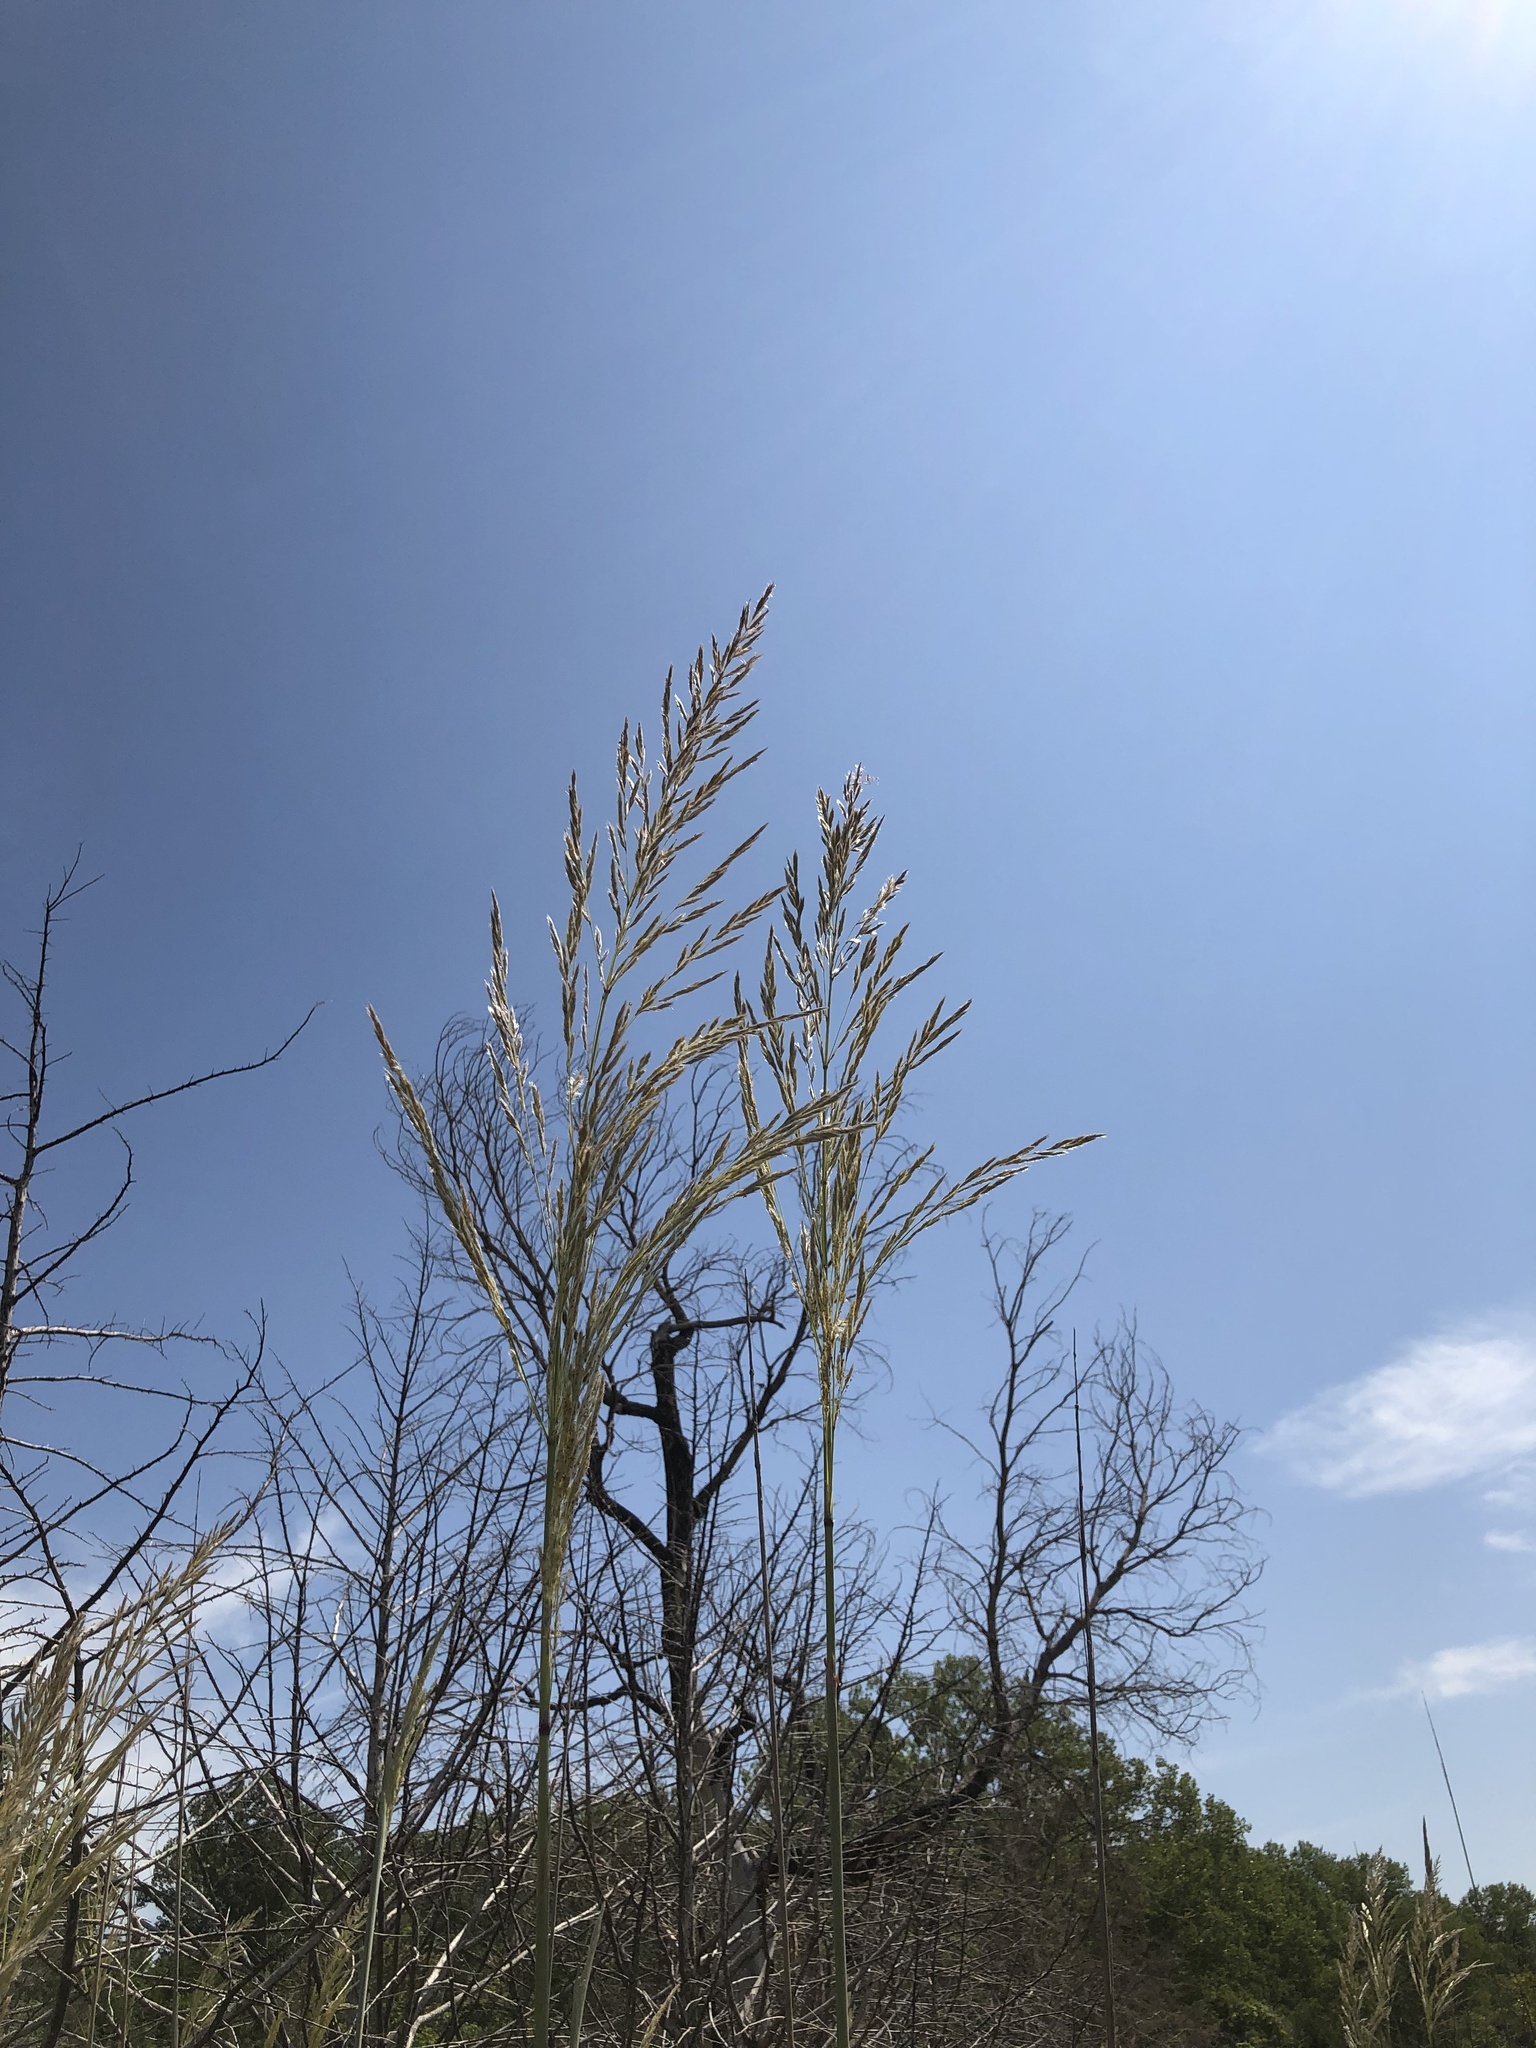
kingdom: Plantae
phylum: Tracheophyta
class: Liliopsida
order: Poales
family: Poaceae
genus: Tripidium
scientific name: Tripidium ravennae
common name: Ravenna grass
